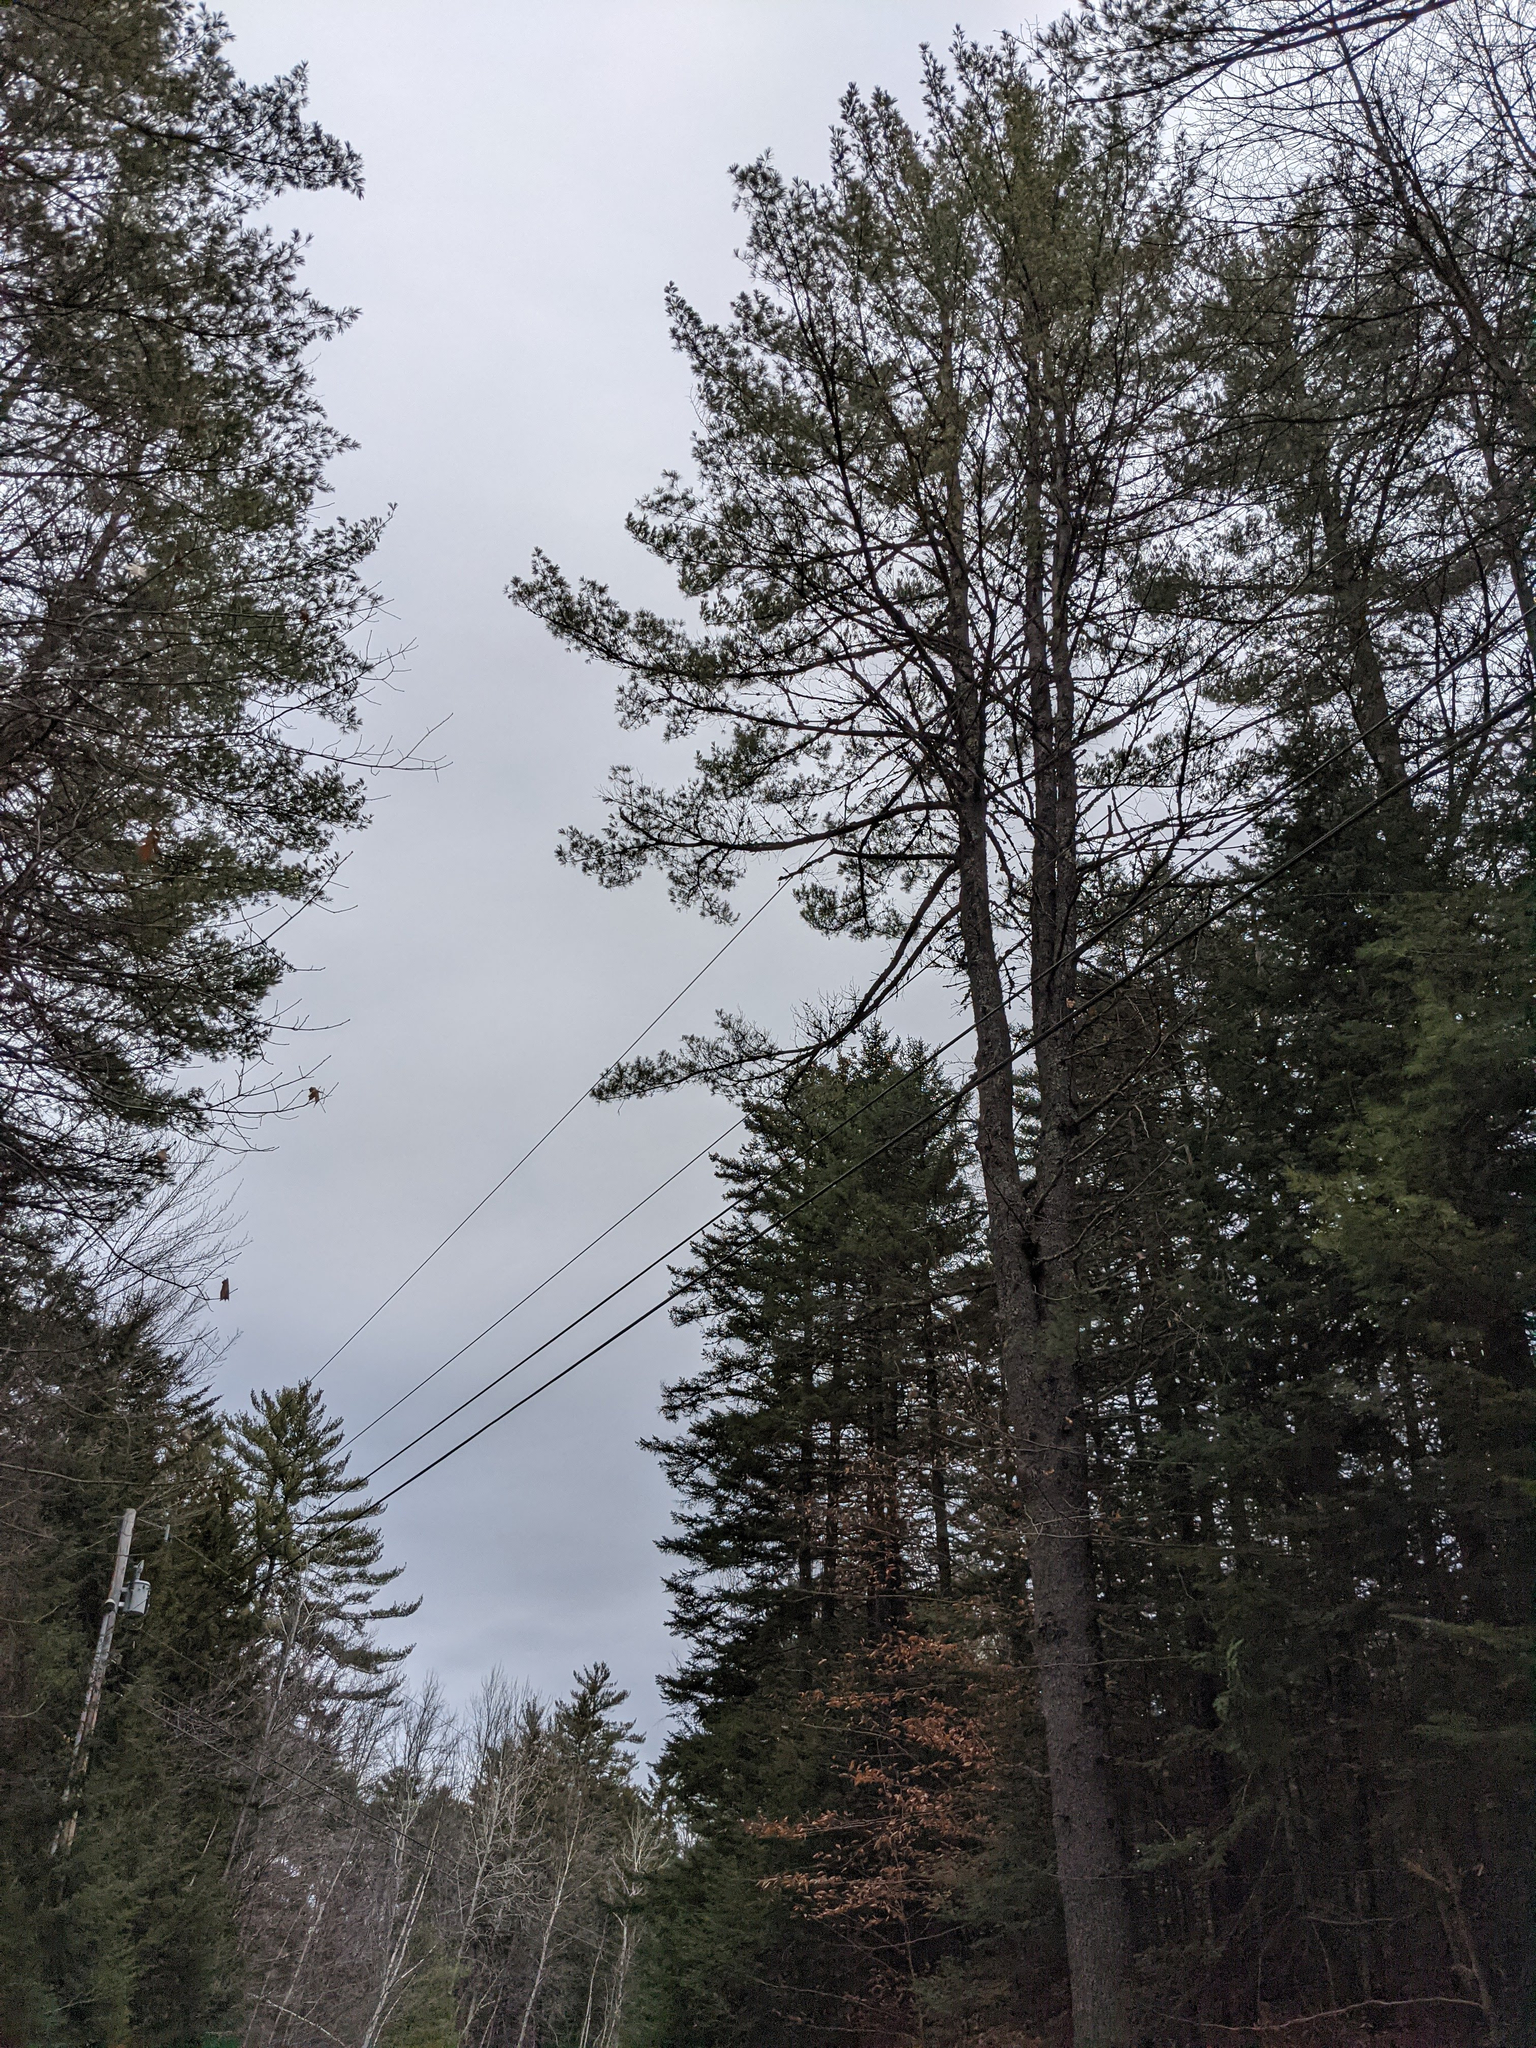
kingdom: Plantae
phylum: Tracheophyta
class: Pinopsida
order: Pinales
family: Pinaceae
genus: Pinus
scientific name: Pinus strobus
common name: Weymouth pine
